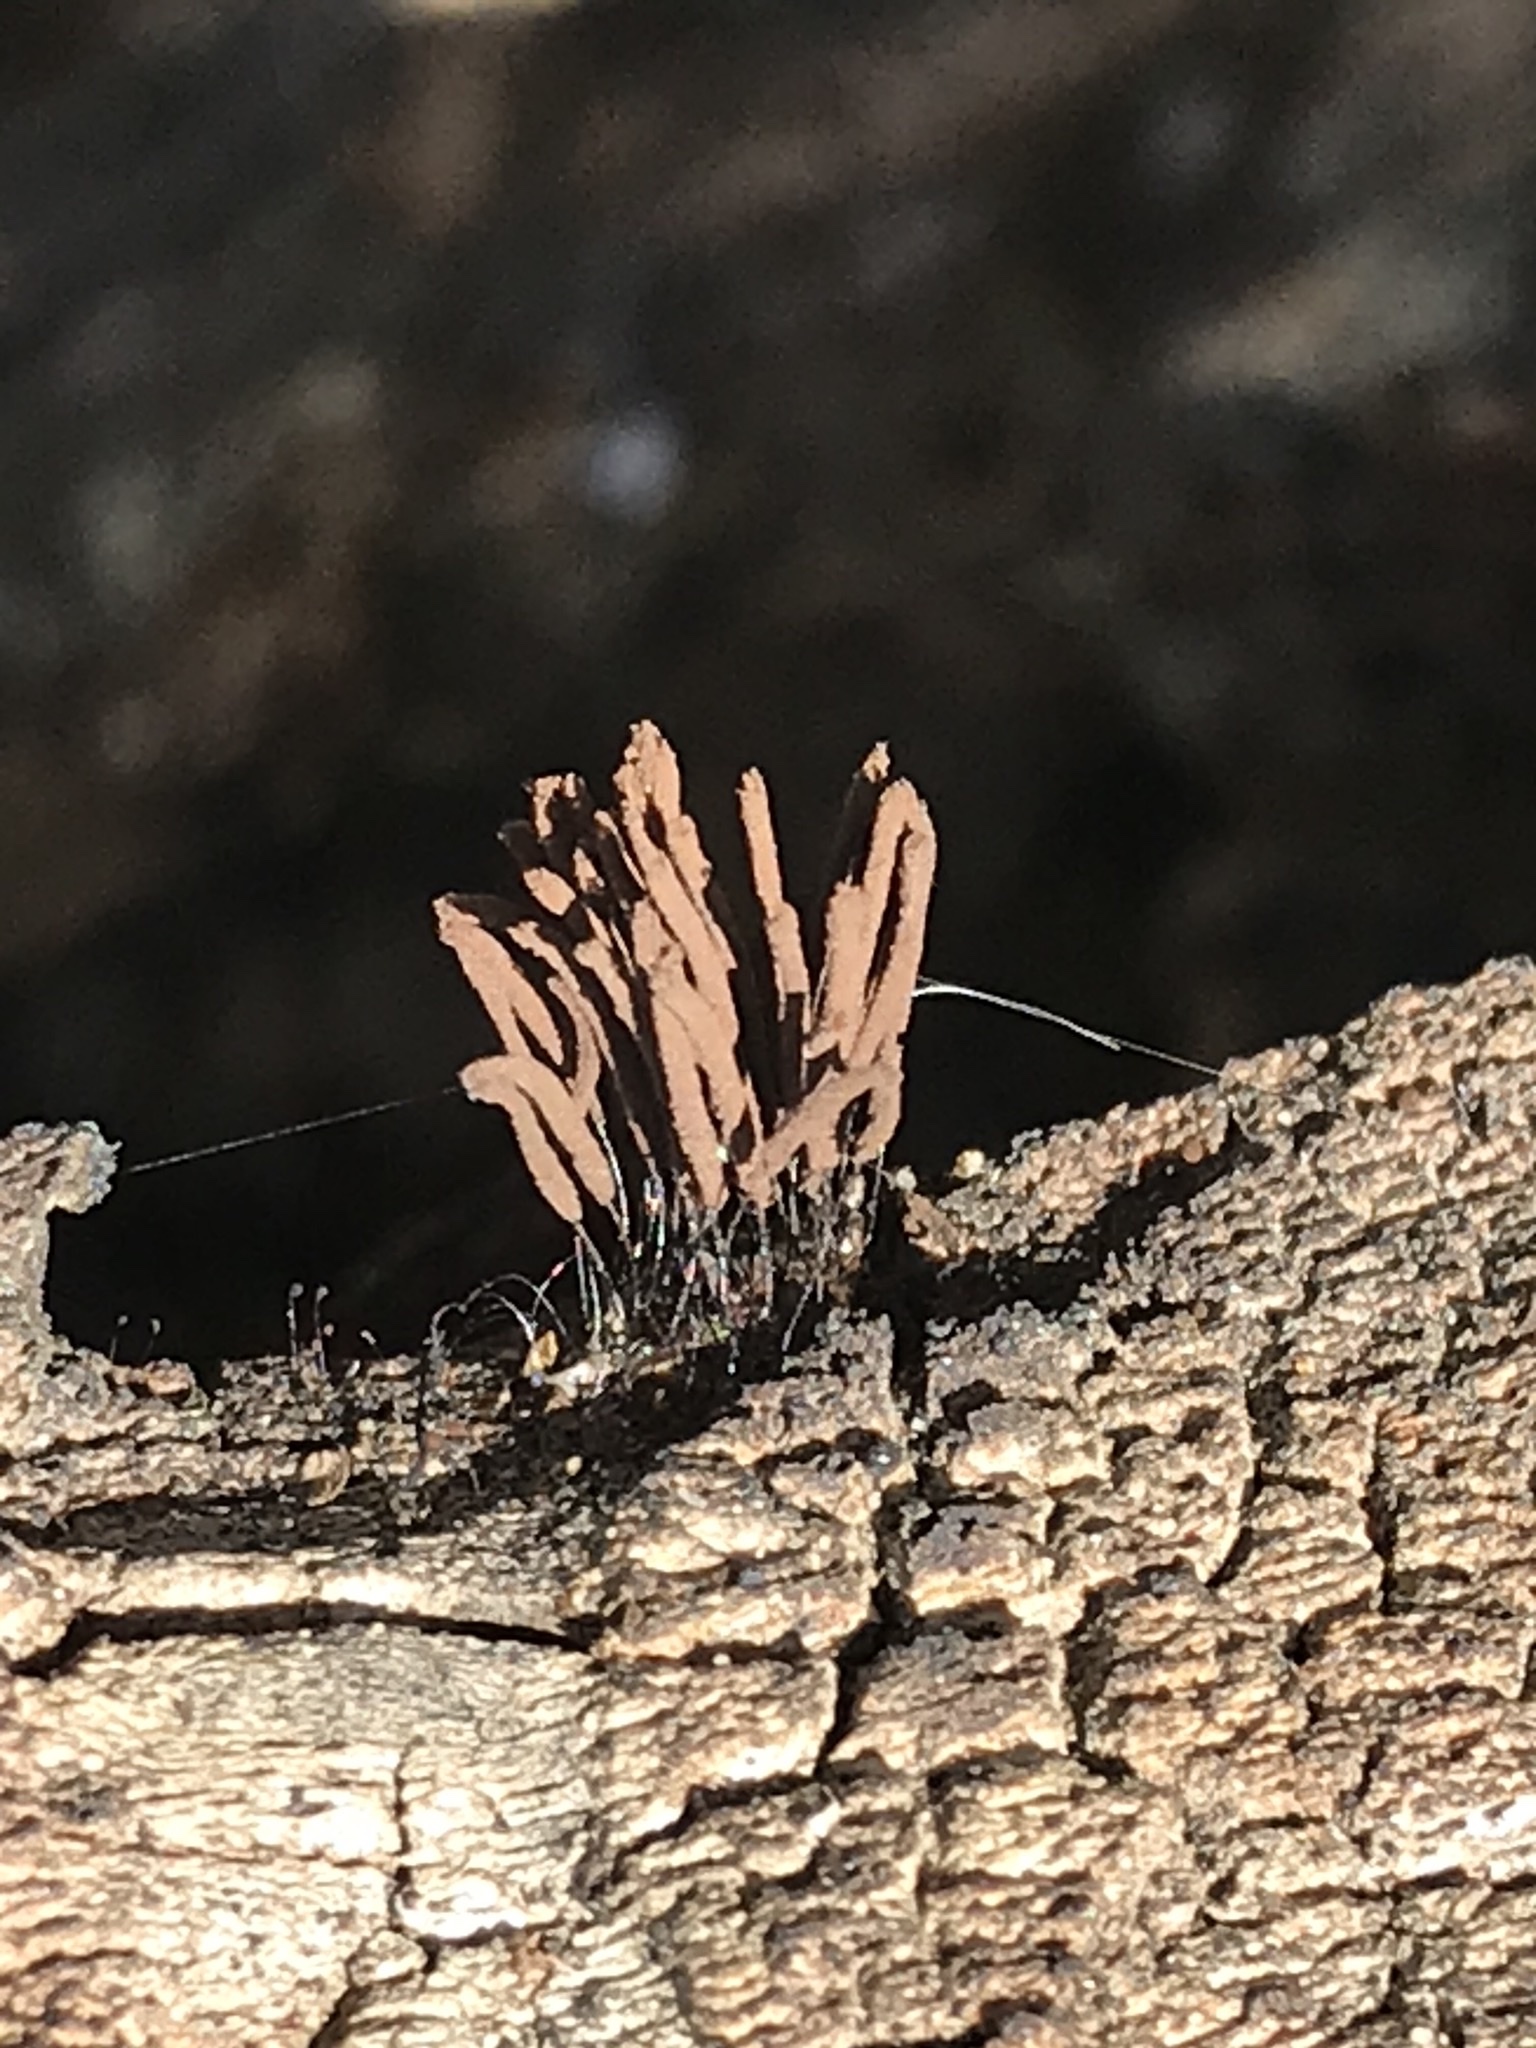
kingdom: Protozoa
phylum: Mycetozoa
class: Myxomycetes
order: Stemonitidales
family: Stemonitidaceae
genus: Stemonitis
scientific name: Stemonitis splendens
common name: Chocolate tube slime
